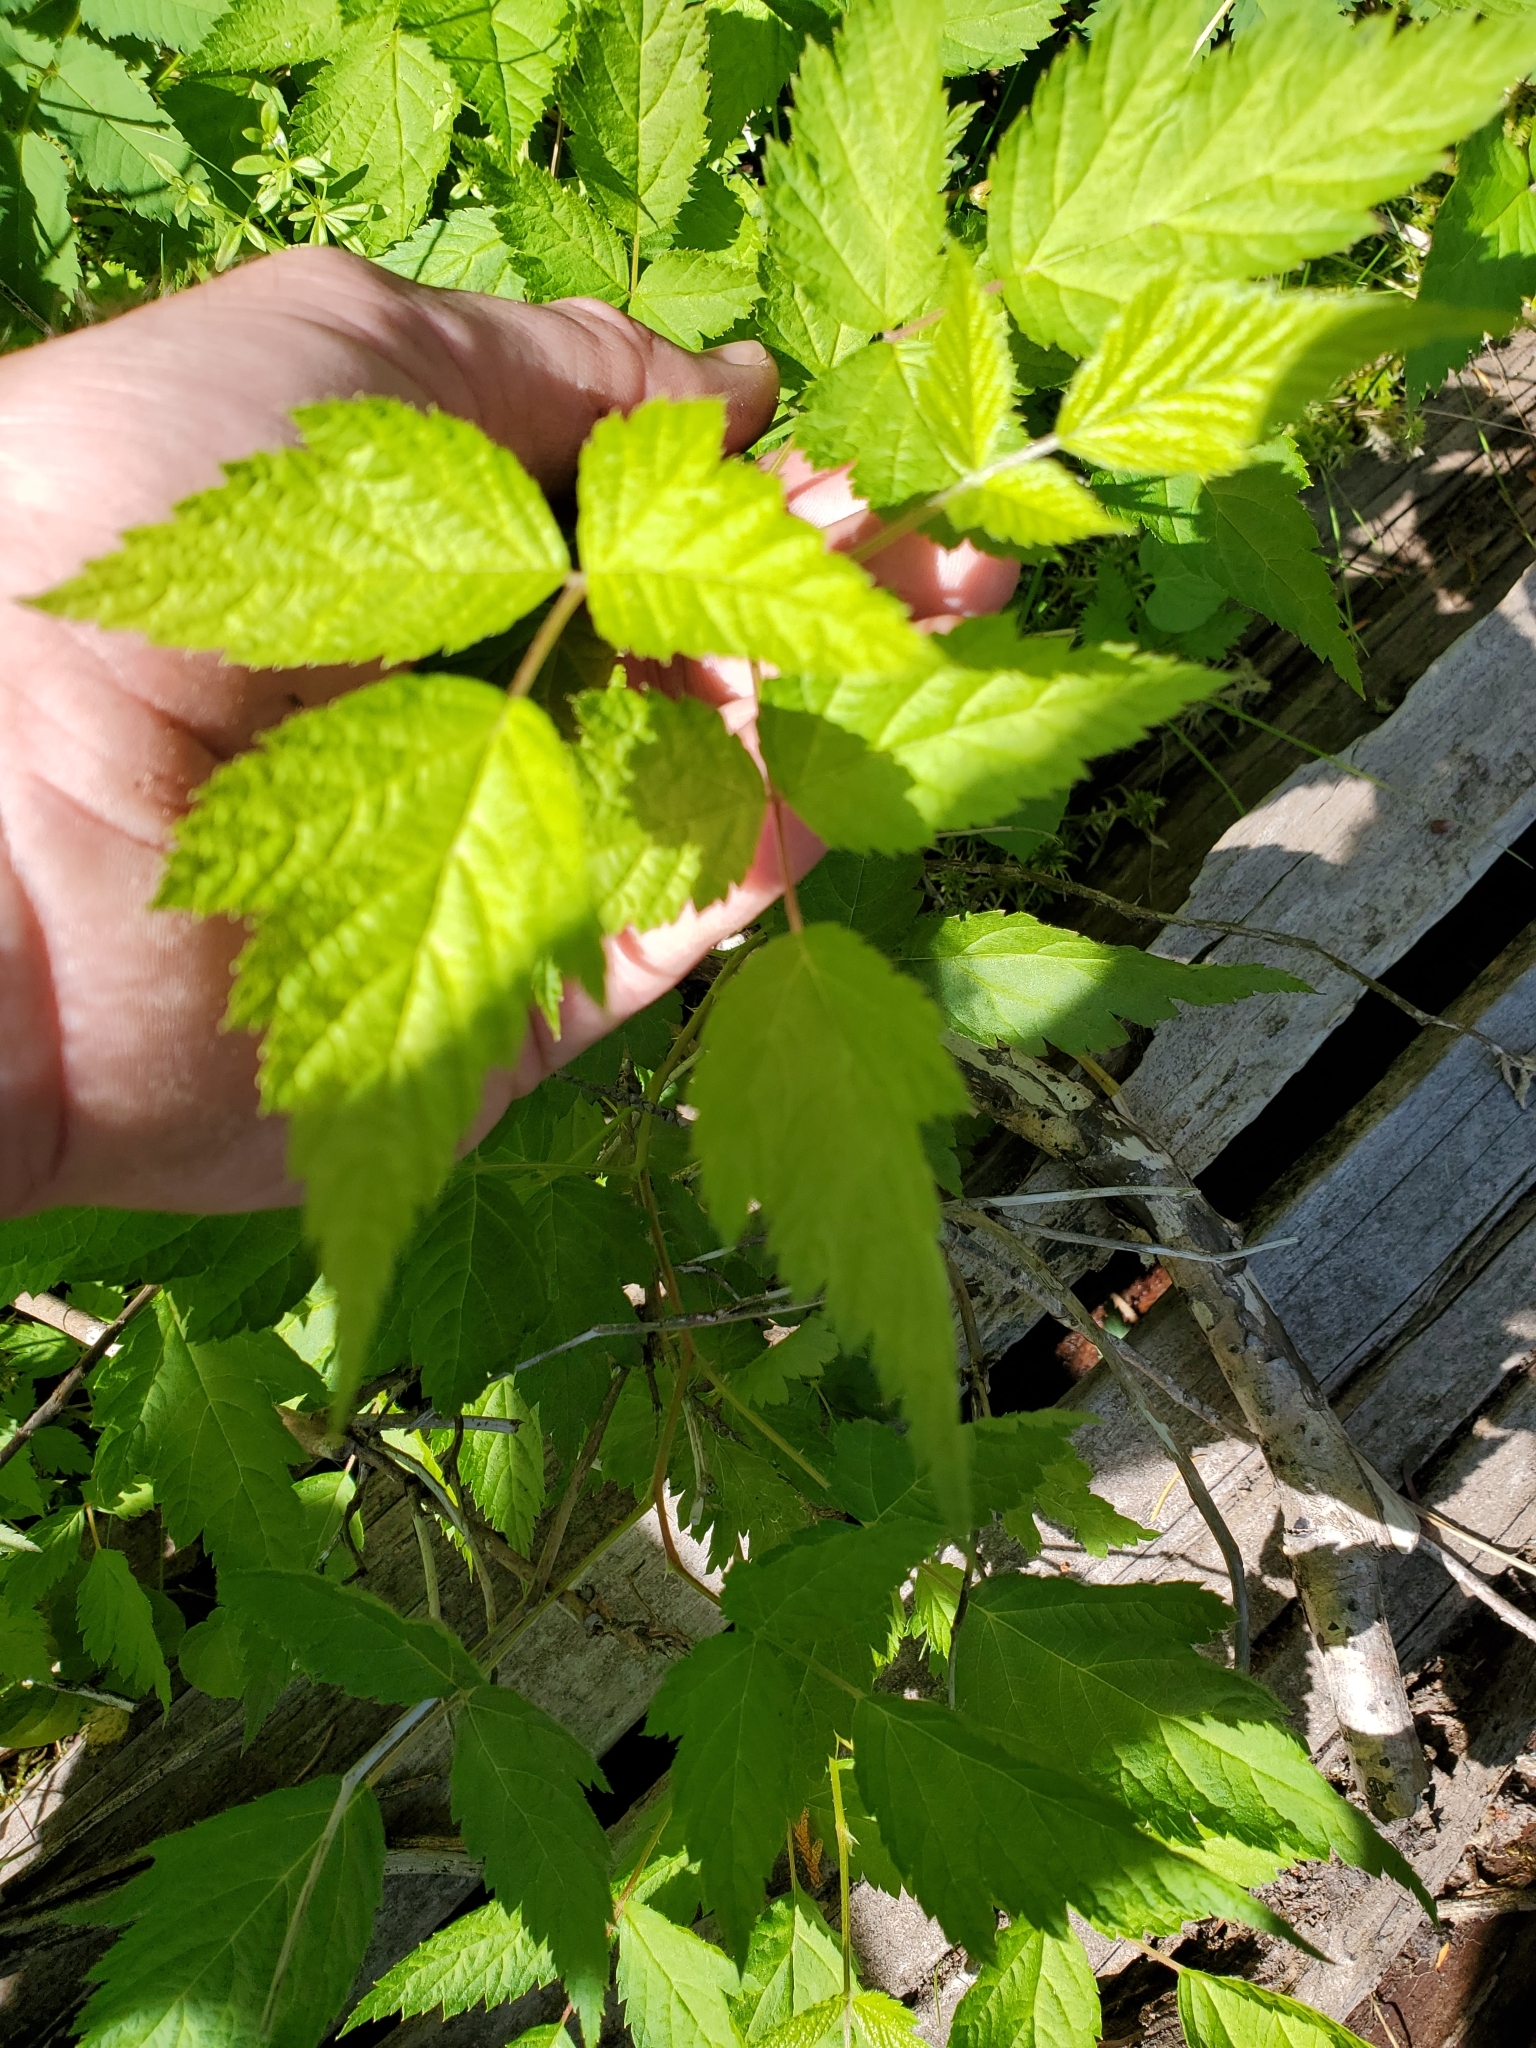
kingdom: Plantae
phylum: Tracheophyta
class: Magnoliopsida
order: Rosales
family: Rosaceae
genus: Rubus
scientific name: Rubus spectabilis
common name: Salmonberry
